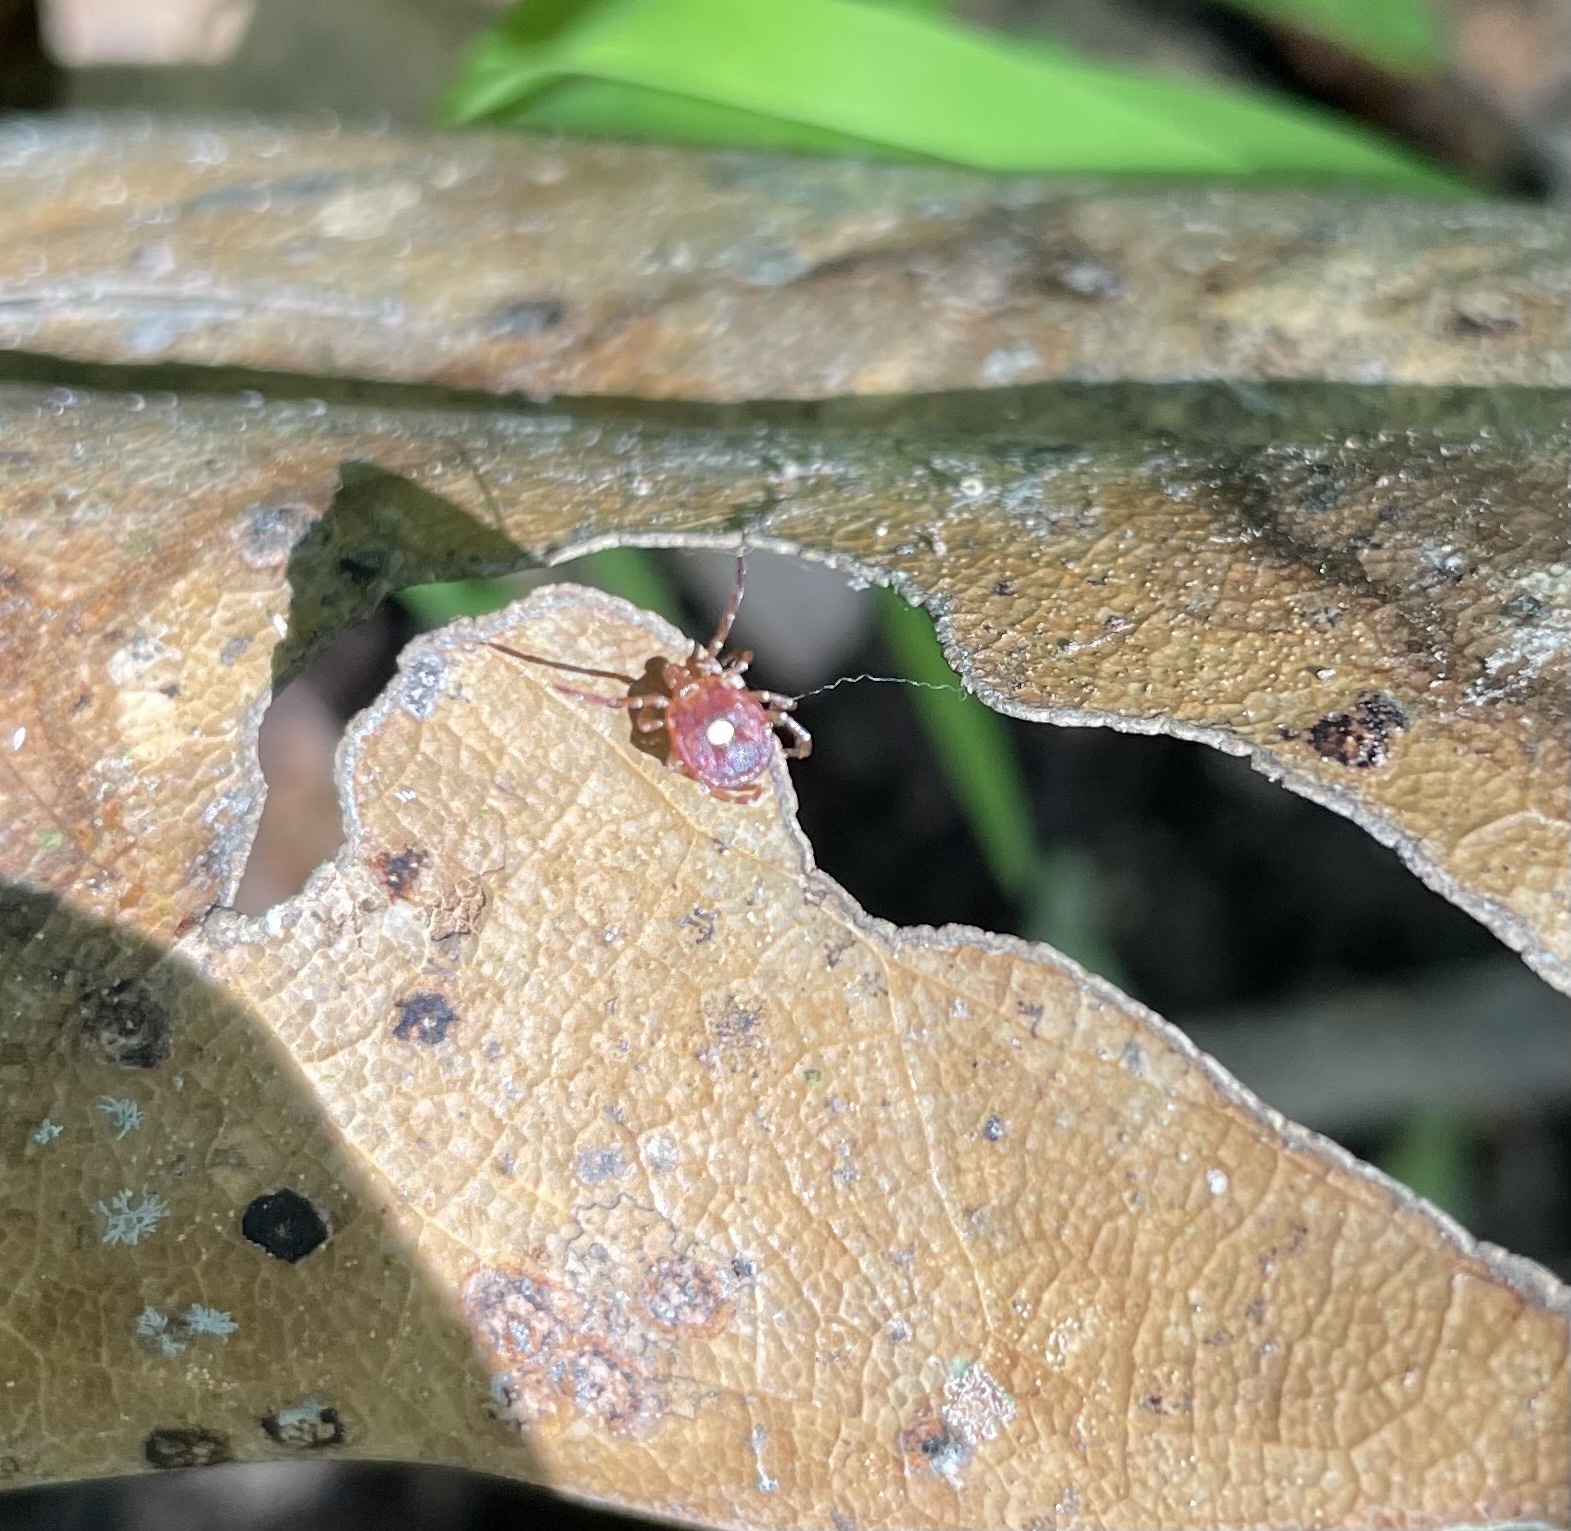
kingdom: Animalia
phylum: Arthropoda
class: Arachnida
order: Ixodida
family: Ixodidae
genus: Amblyomma
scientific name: Amblyomma americanum
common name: Lone star tick
